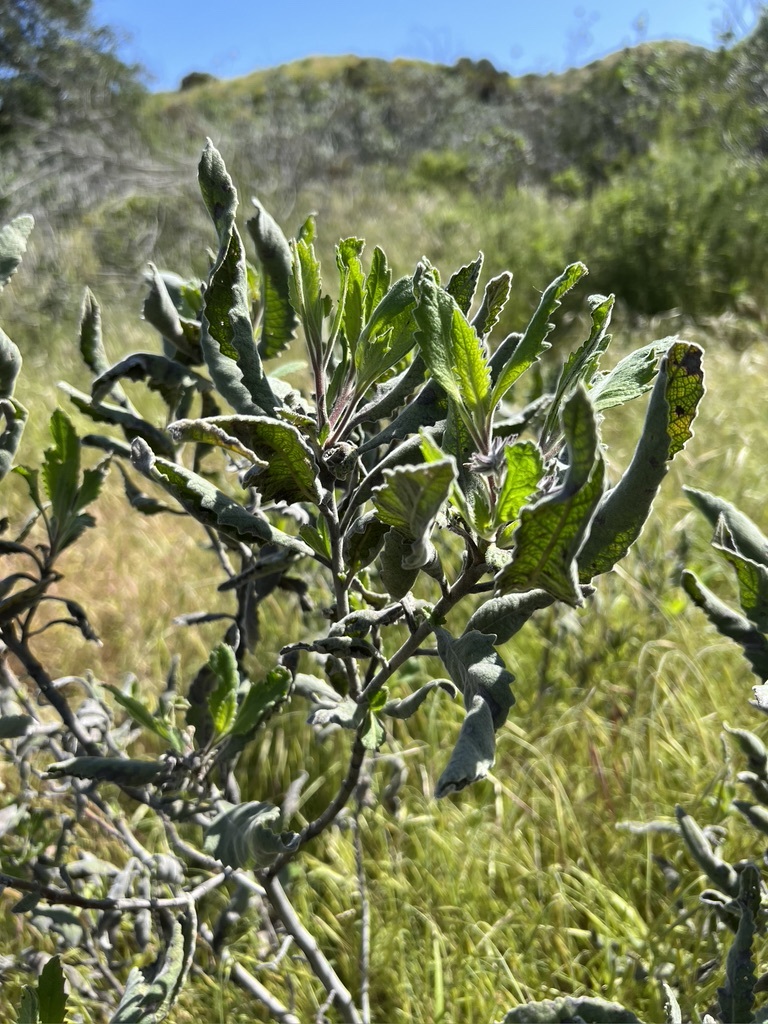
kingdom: Plantae
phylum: Tracheophyta
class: Magnoliopsida
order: Boraginales
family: Namaceae
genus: Eriodictyon
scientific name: Eriodictyon crassifolium
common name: Thick-leaf yerba-santa
